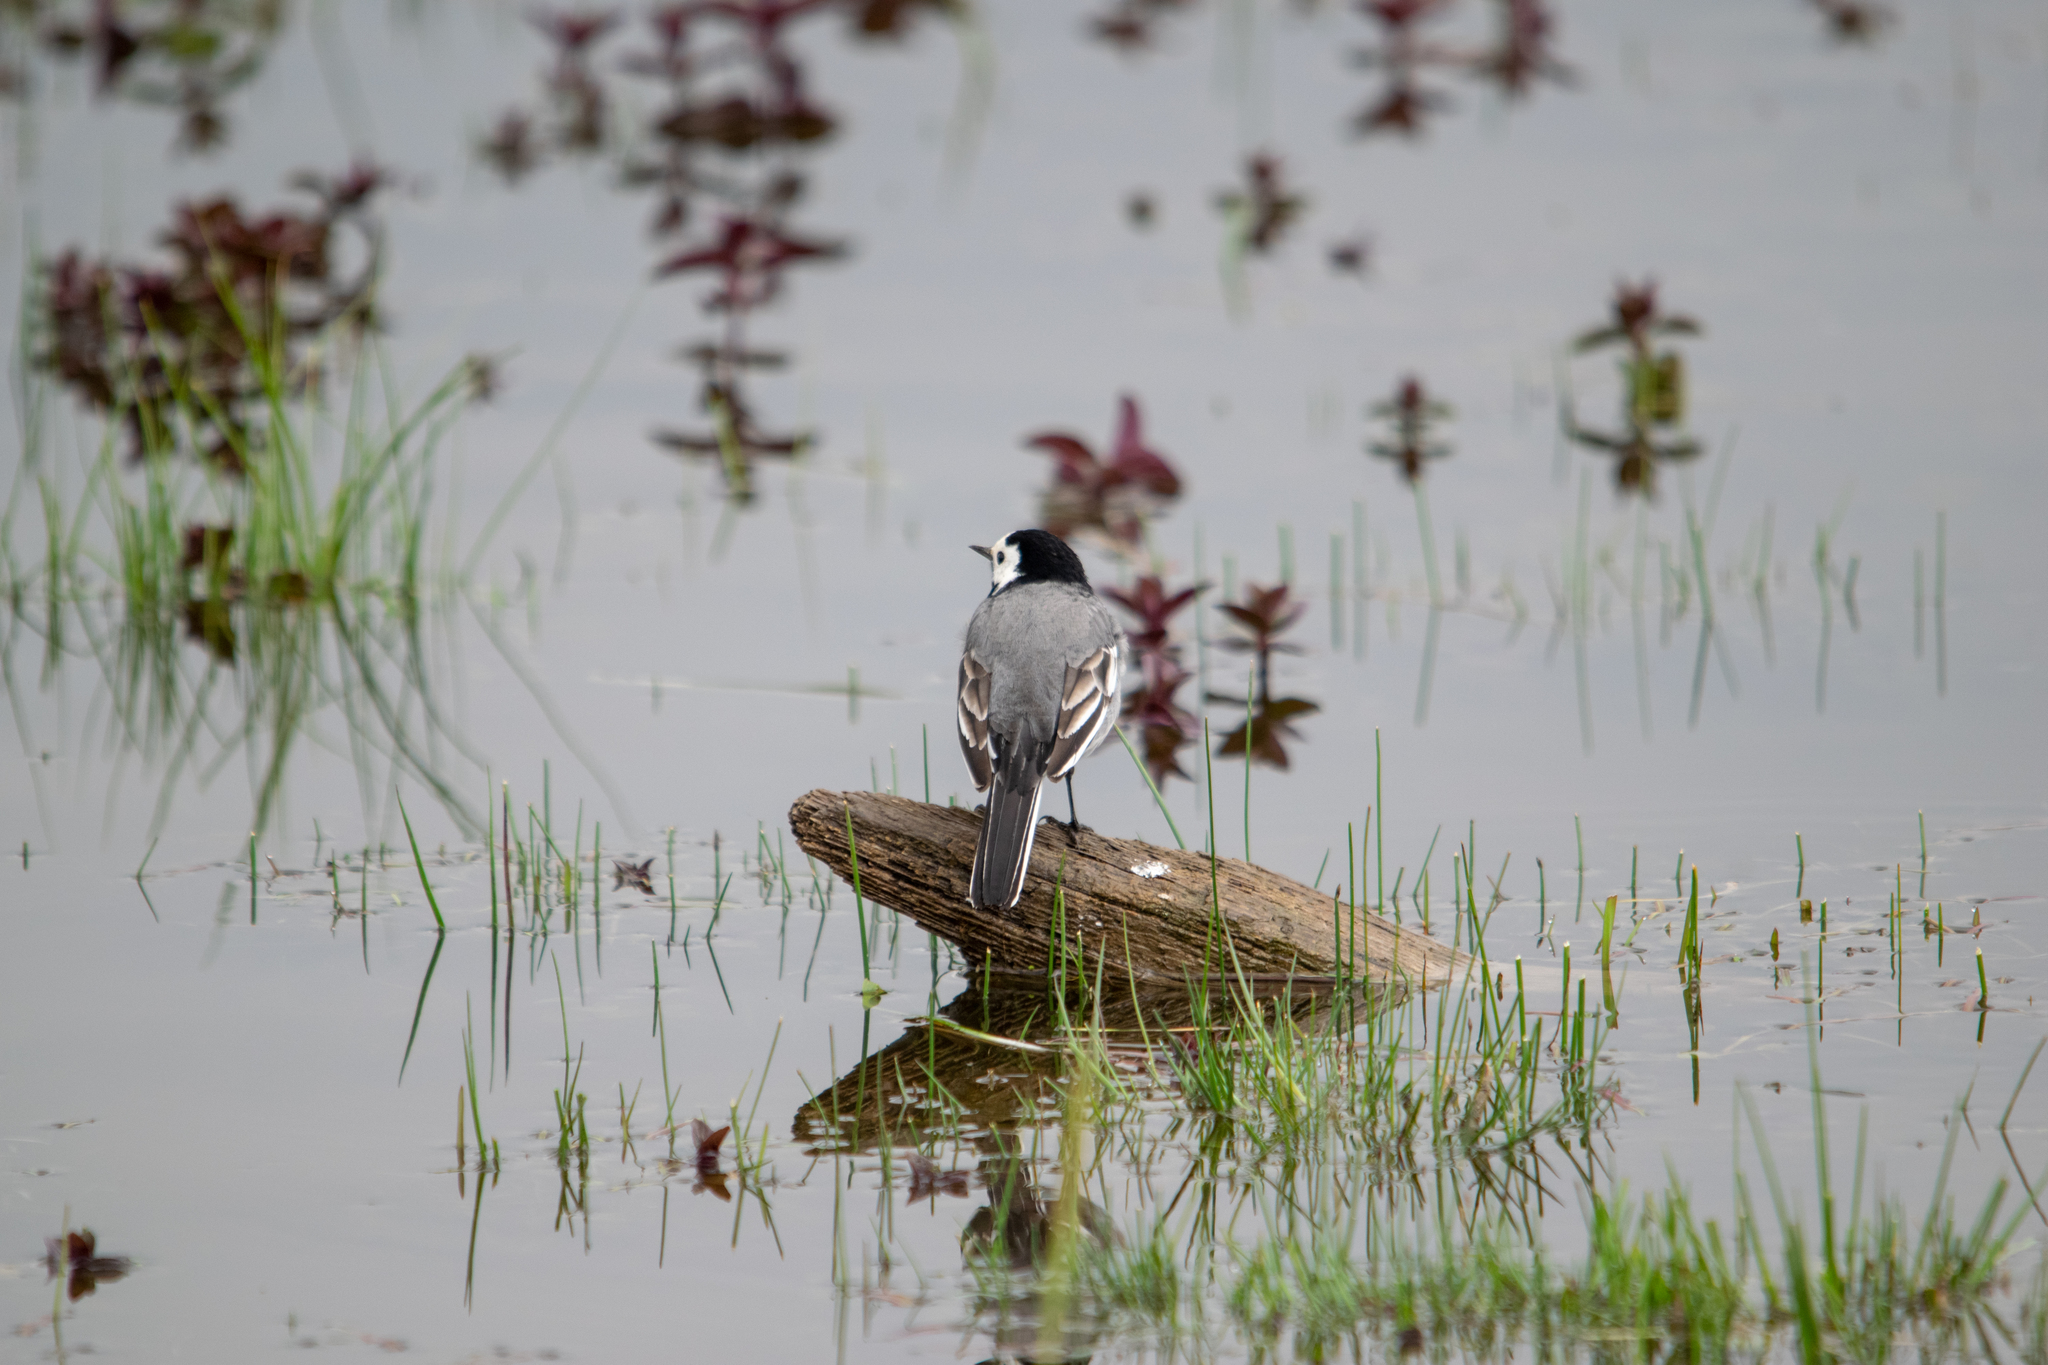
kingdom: Animalia
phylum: Chordata
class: Aves
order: Passeriformes
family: Motacillidae
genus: Motacilla
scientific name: Motacilla alba
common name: White wagtail
